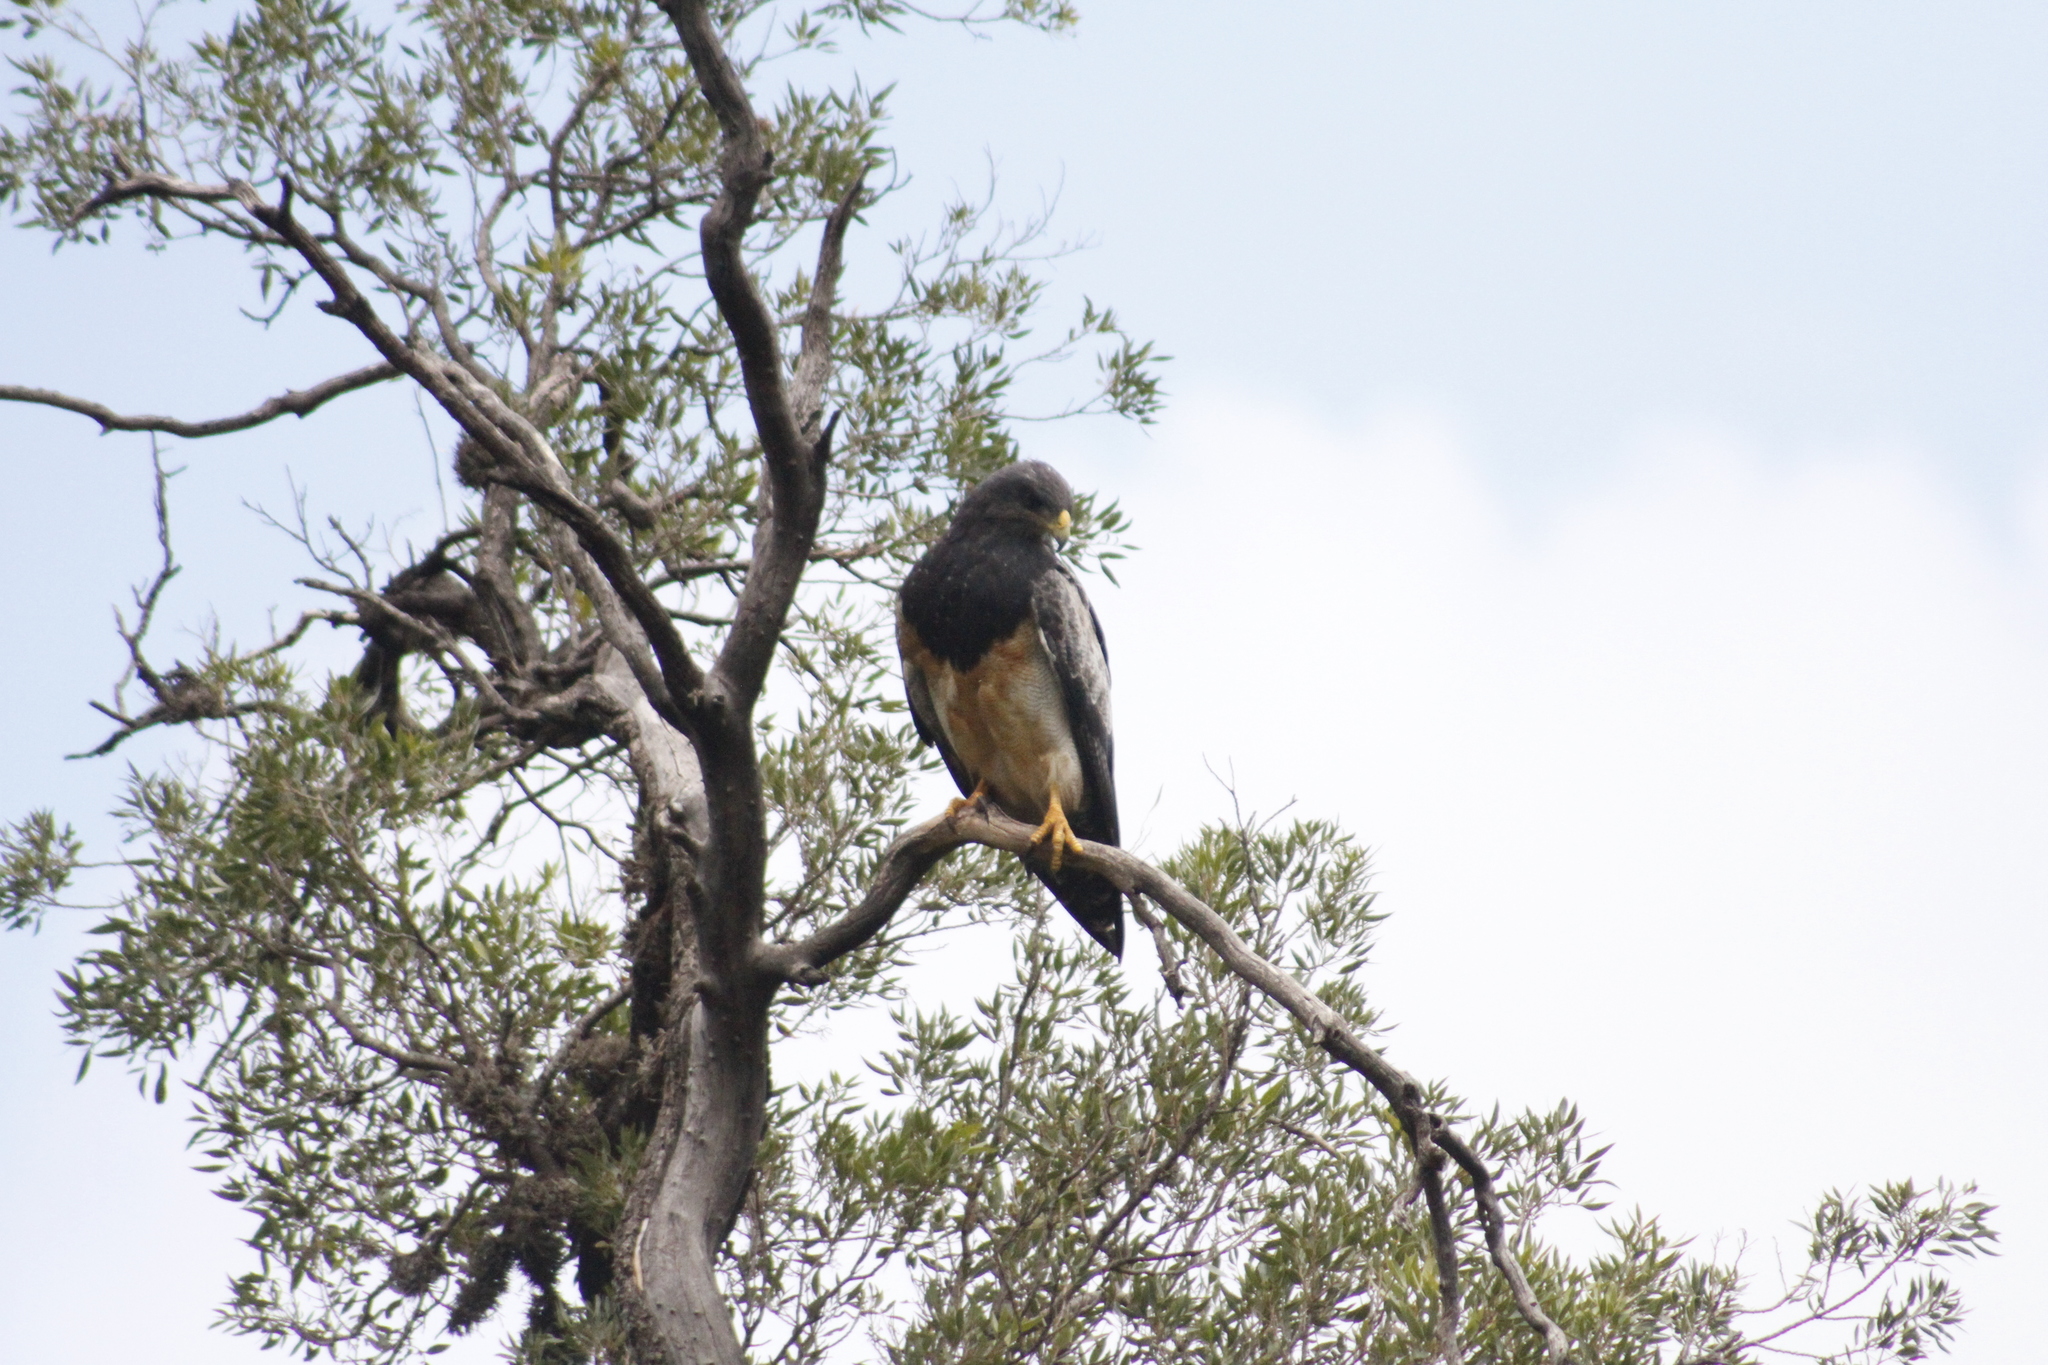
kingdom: Animalia
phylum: Chordata
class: Aves
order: Accipitriformes
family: Accipitridae
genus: Geranoaetus
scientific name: Geranoaetus melanoleucus
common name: Black-chested buzzard-eagle
